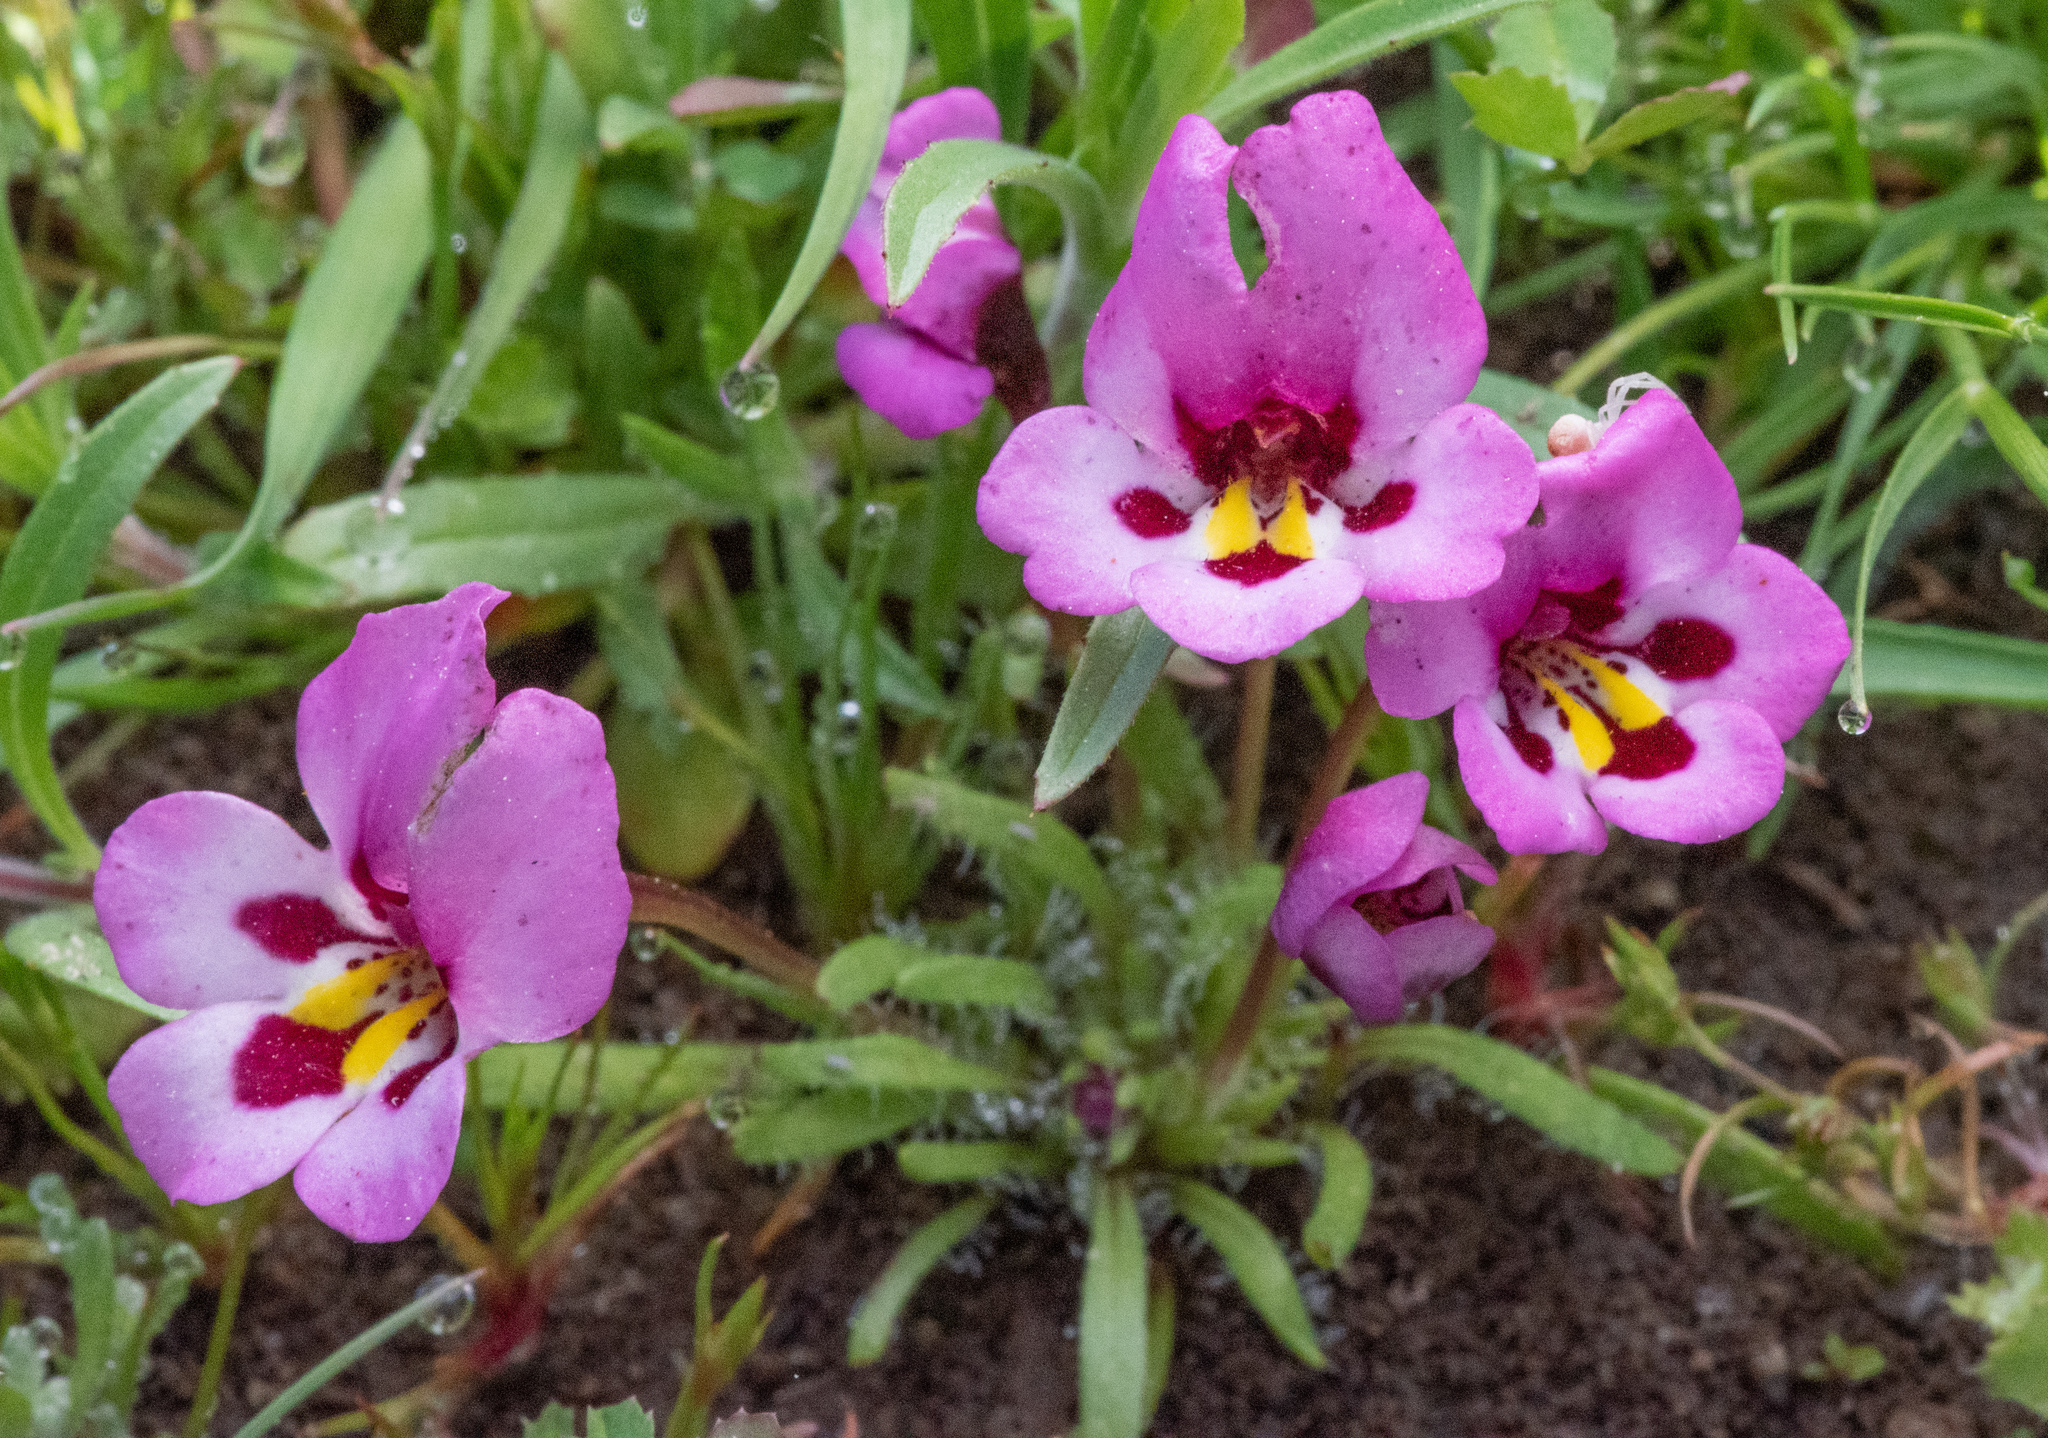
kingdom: Plantae
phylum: Tracheophyta
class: Magnoliopsida
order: Lamiales
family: Phrymaceae
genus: Diplacus
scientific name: Diplacus angustatus
